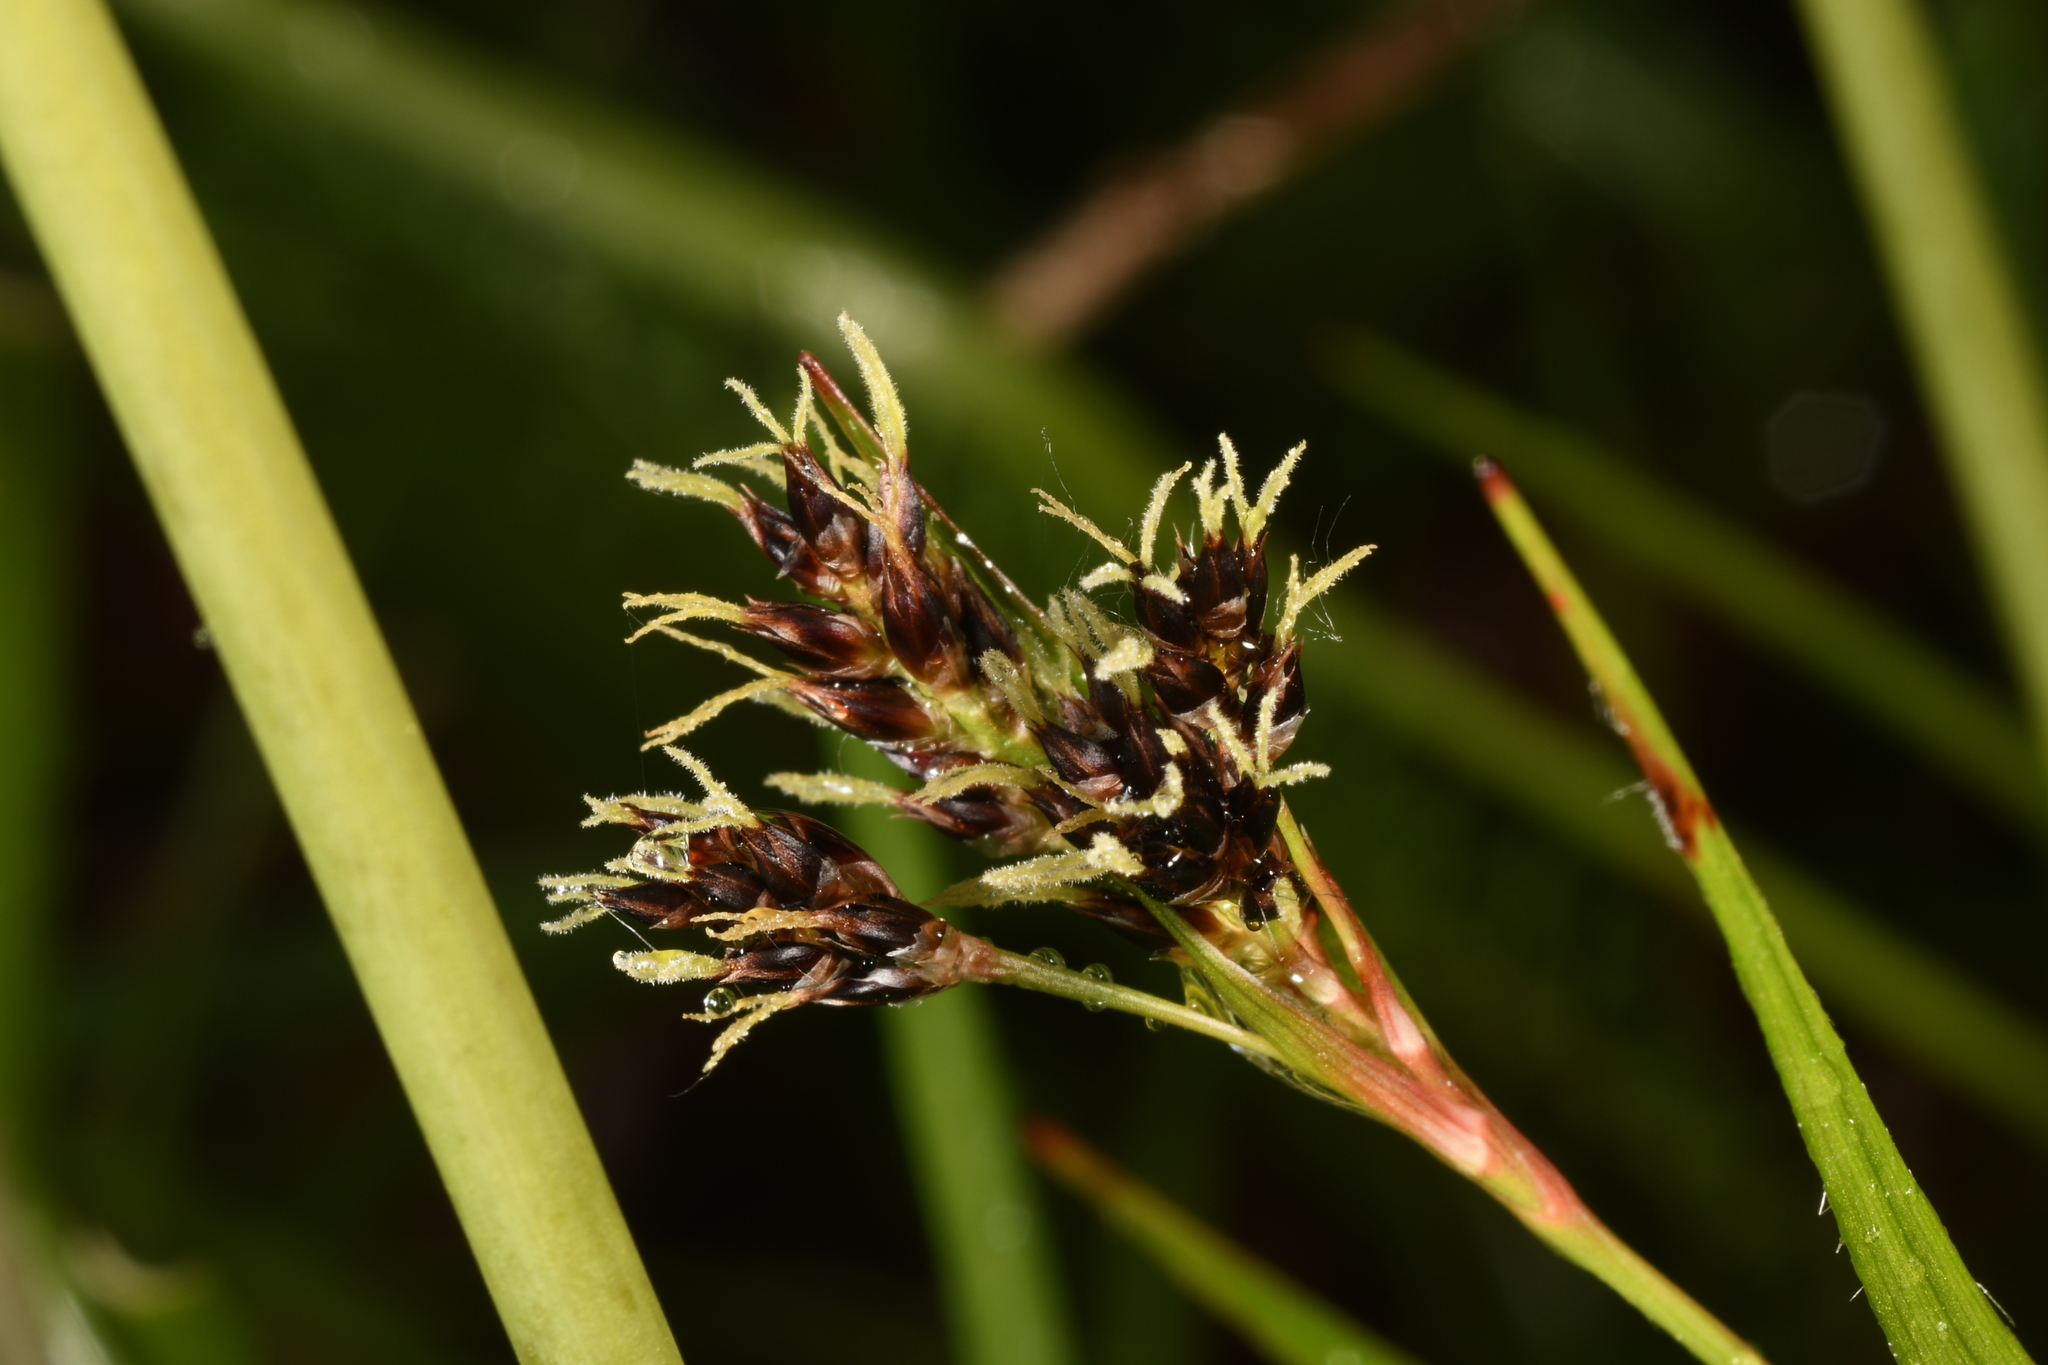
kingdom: Plantae
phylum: Tracheophyta
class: Liliopsida
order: Poales
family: Juncaceae
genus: Luzula
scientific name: Luzula campestris
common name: Field wood-rush
